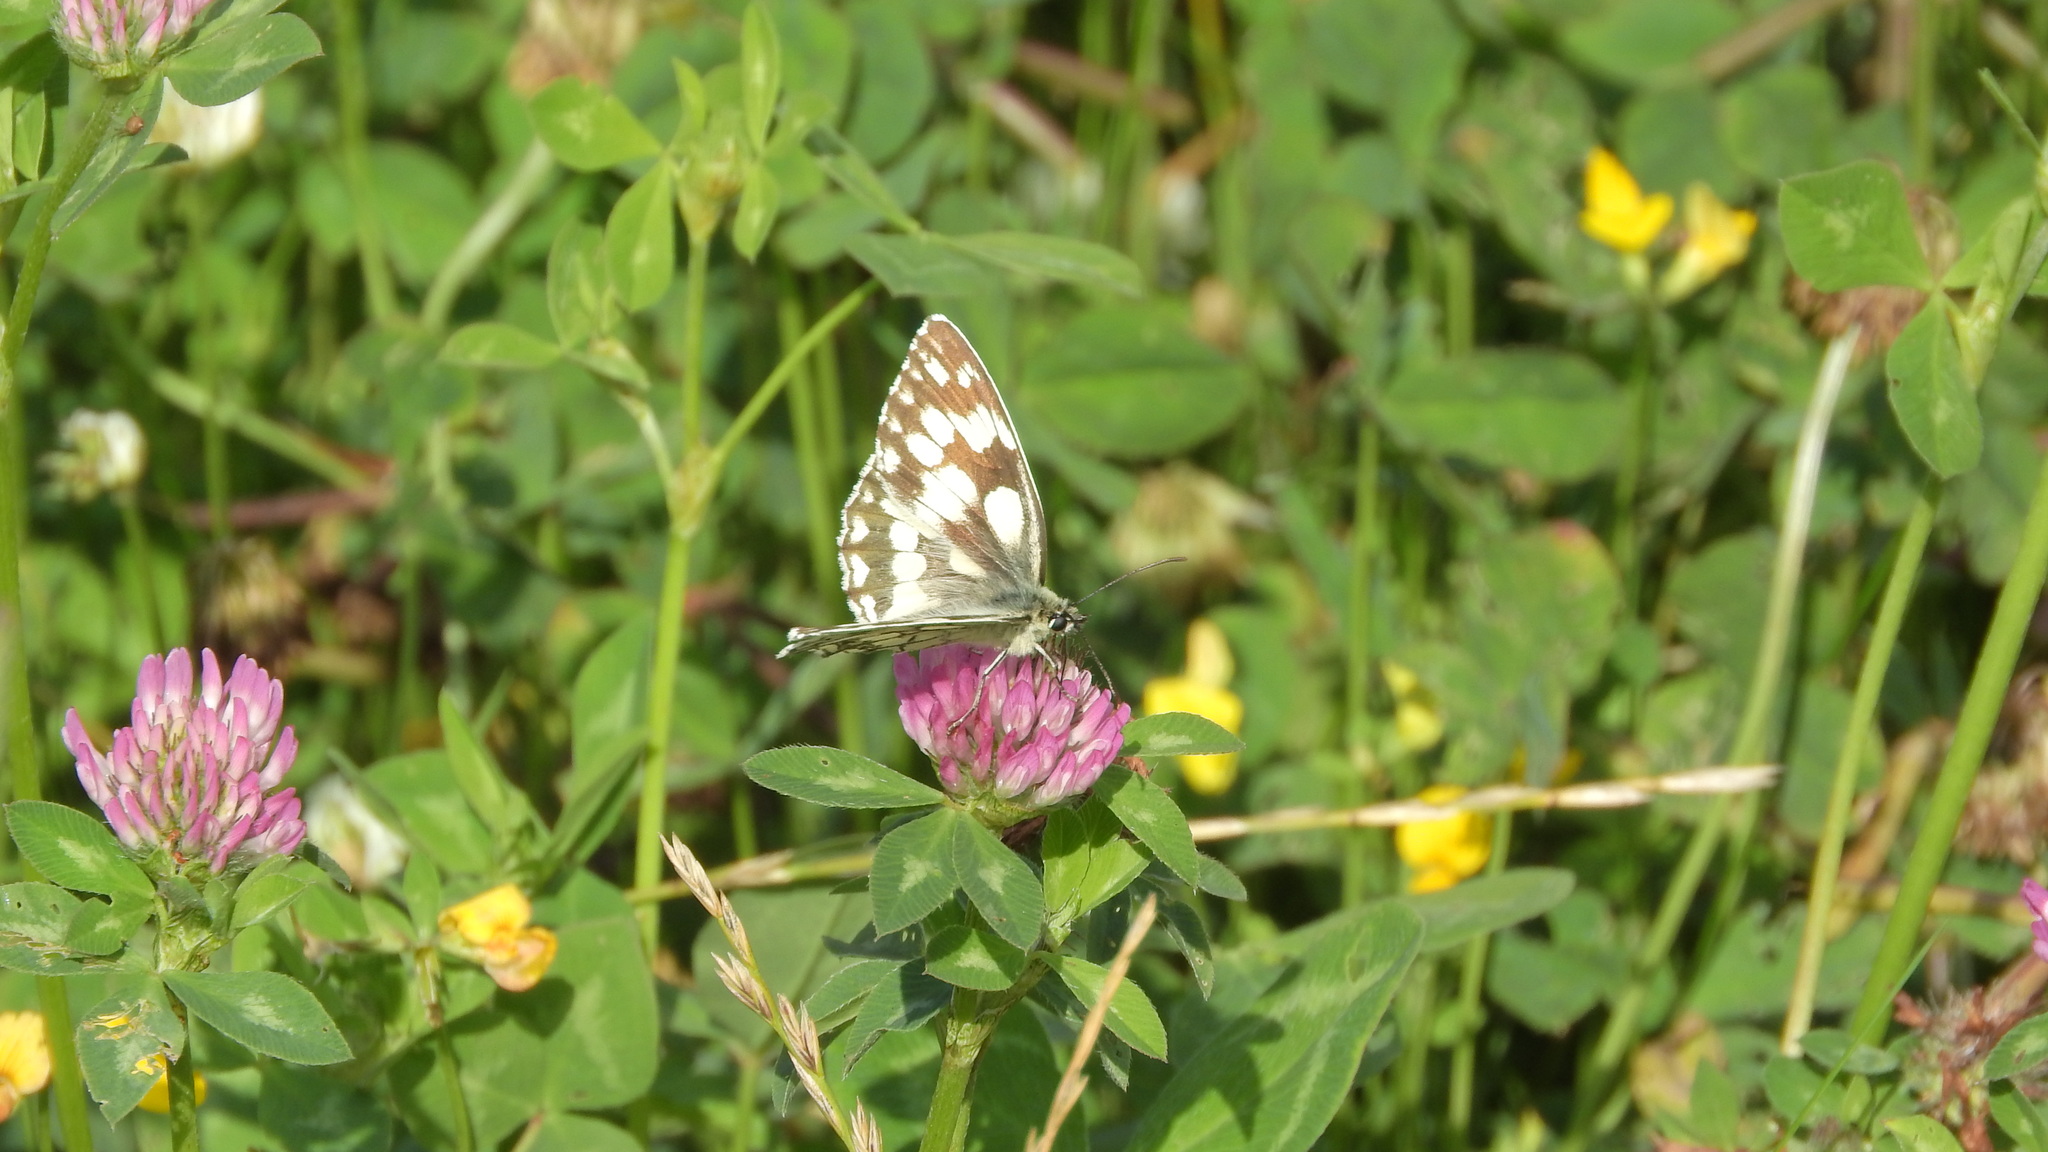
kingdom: Animalia
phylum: Arthropoda
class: Insecta
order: Lepidoptera
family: Nymphalidae
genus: Melanargia
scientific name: Melanargia galathea
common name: Marbled white
